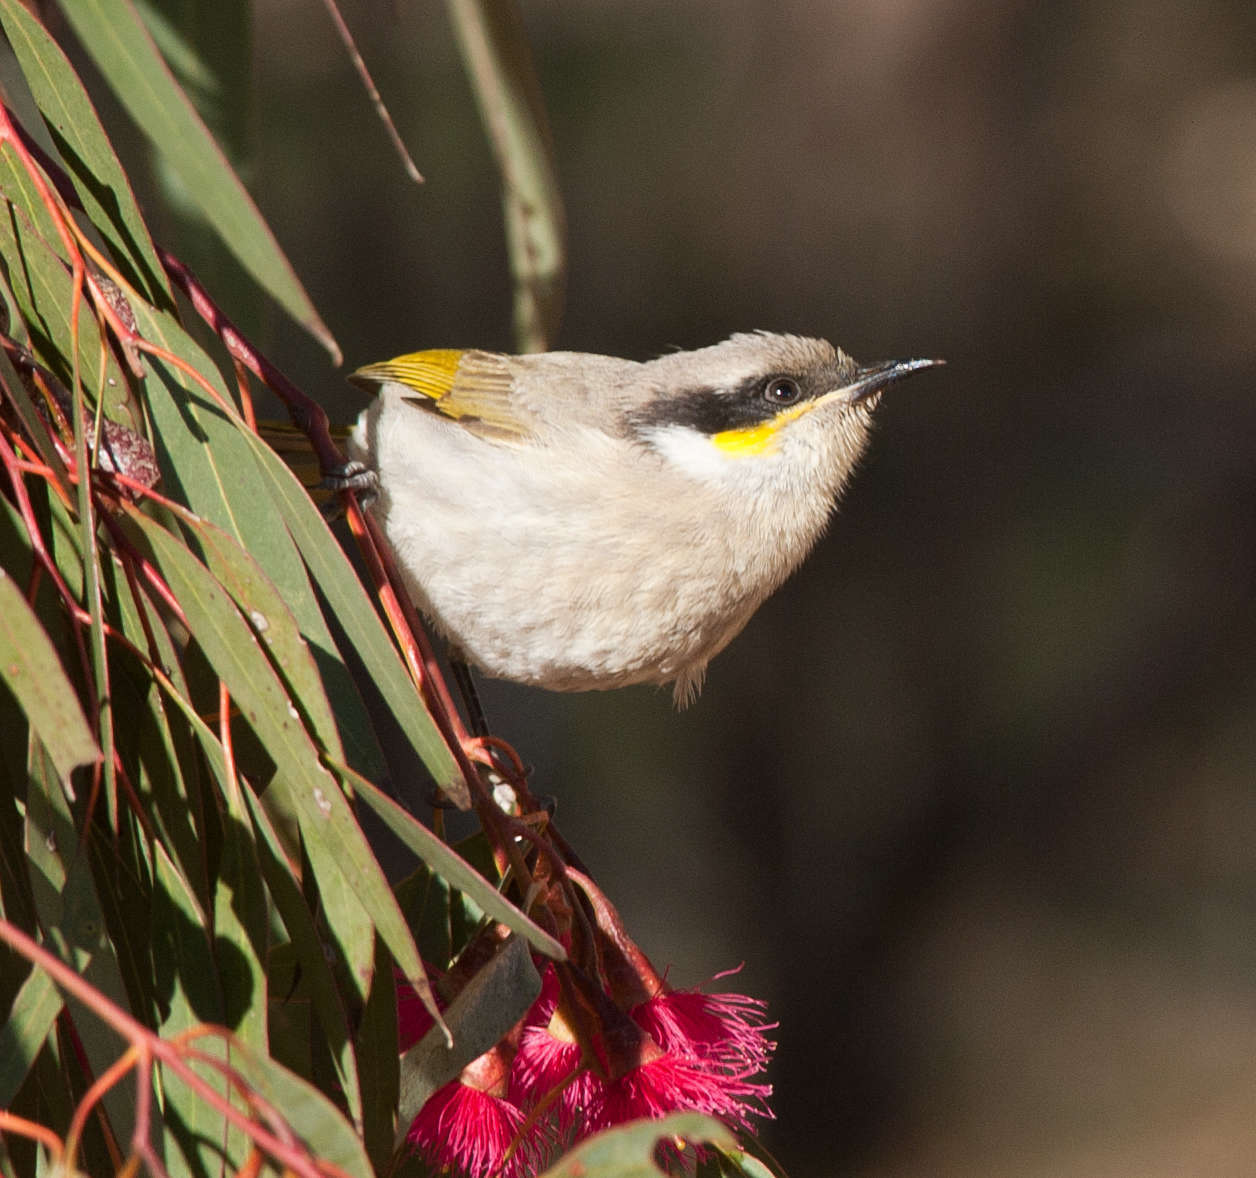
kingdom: Animalia
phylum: Chordata
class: Aves
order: Passeriformes
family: Meliphagidae
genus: Gavicalis
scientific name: Gavicalis virescens
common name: Singing honeyeater
